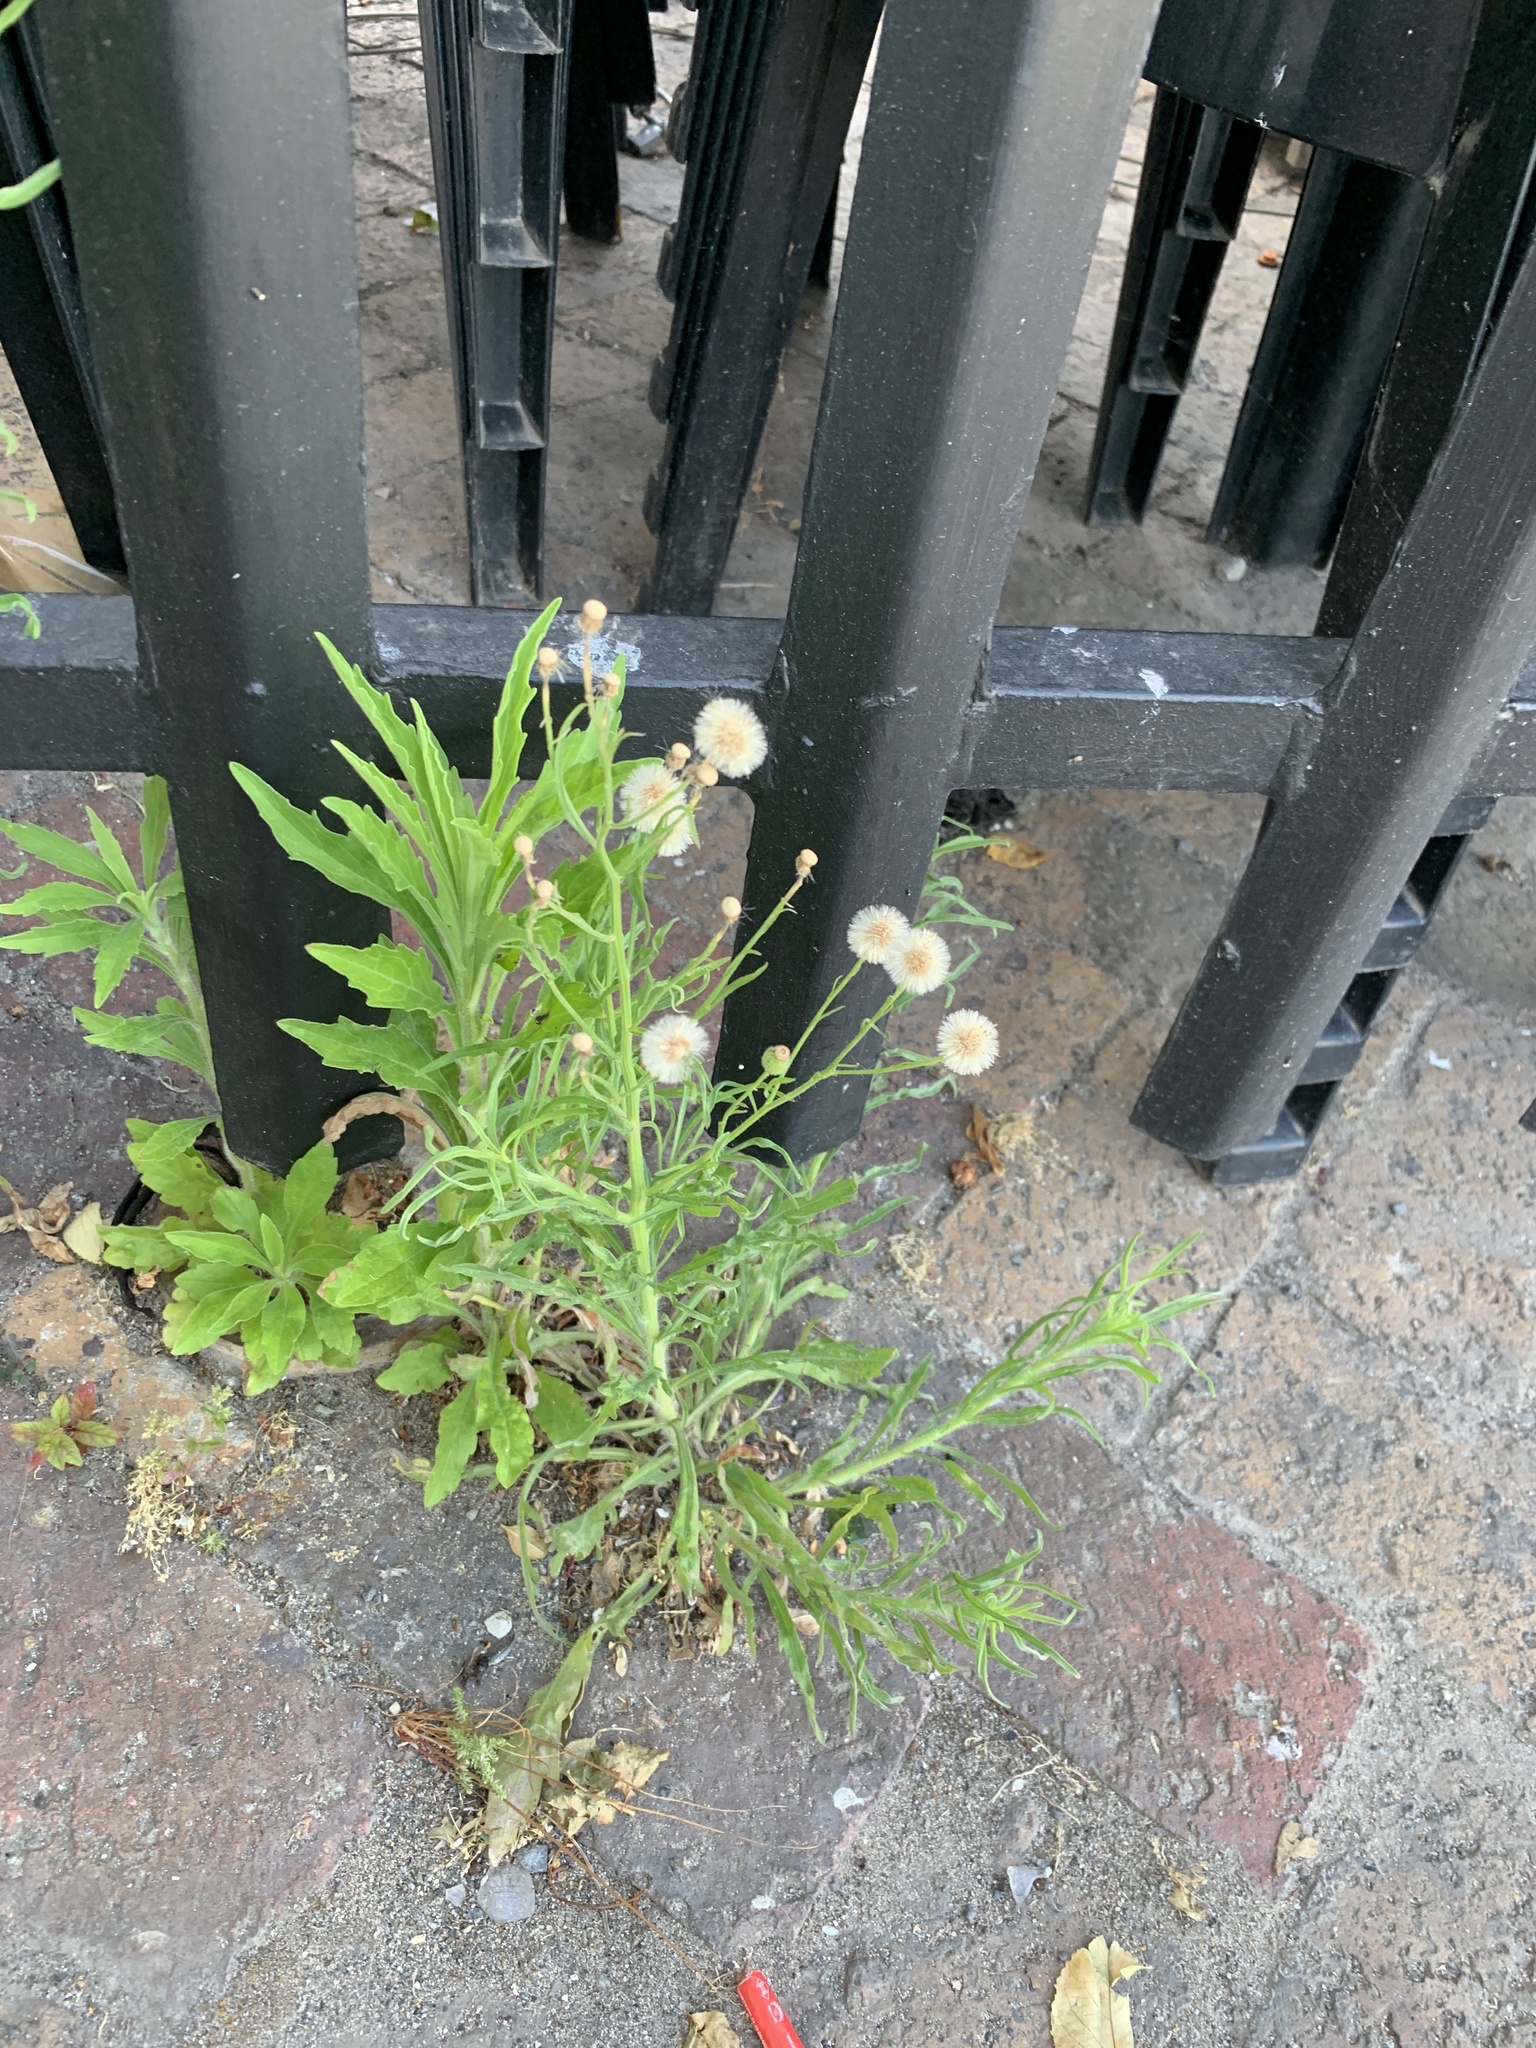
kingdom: Plantae
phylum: Tracheophyta
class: Magnoliopsida
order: Asterales
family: Asteraceae
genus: Erigeron
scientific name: Erigeron bonariensis
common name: Argentine fleabane
